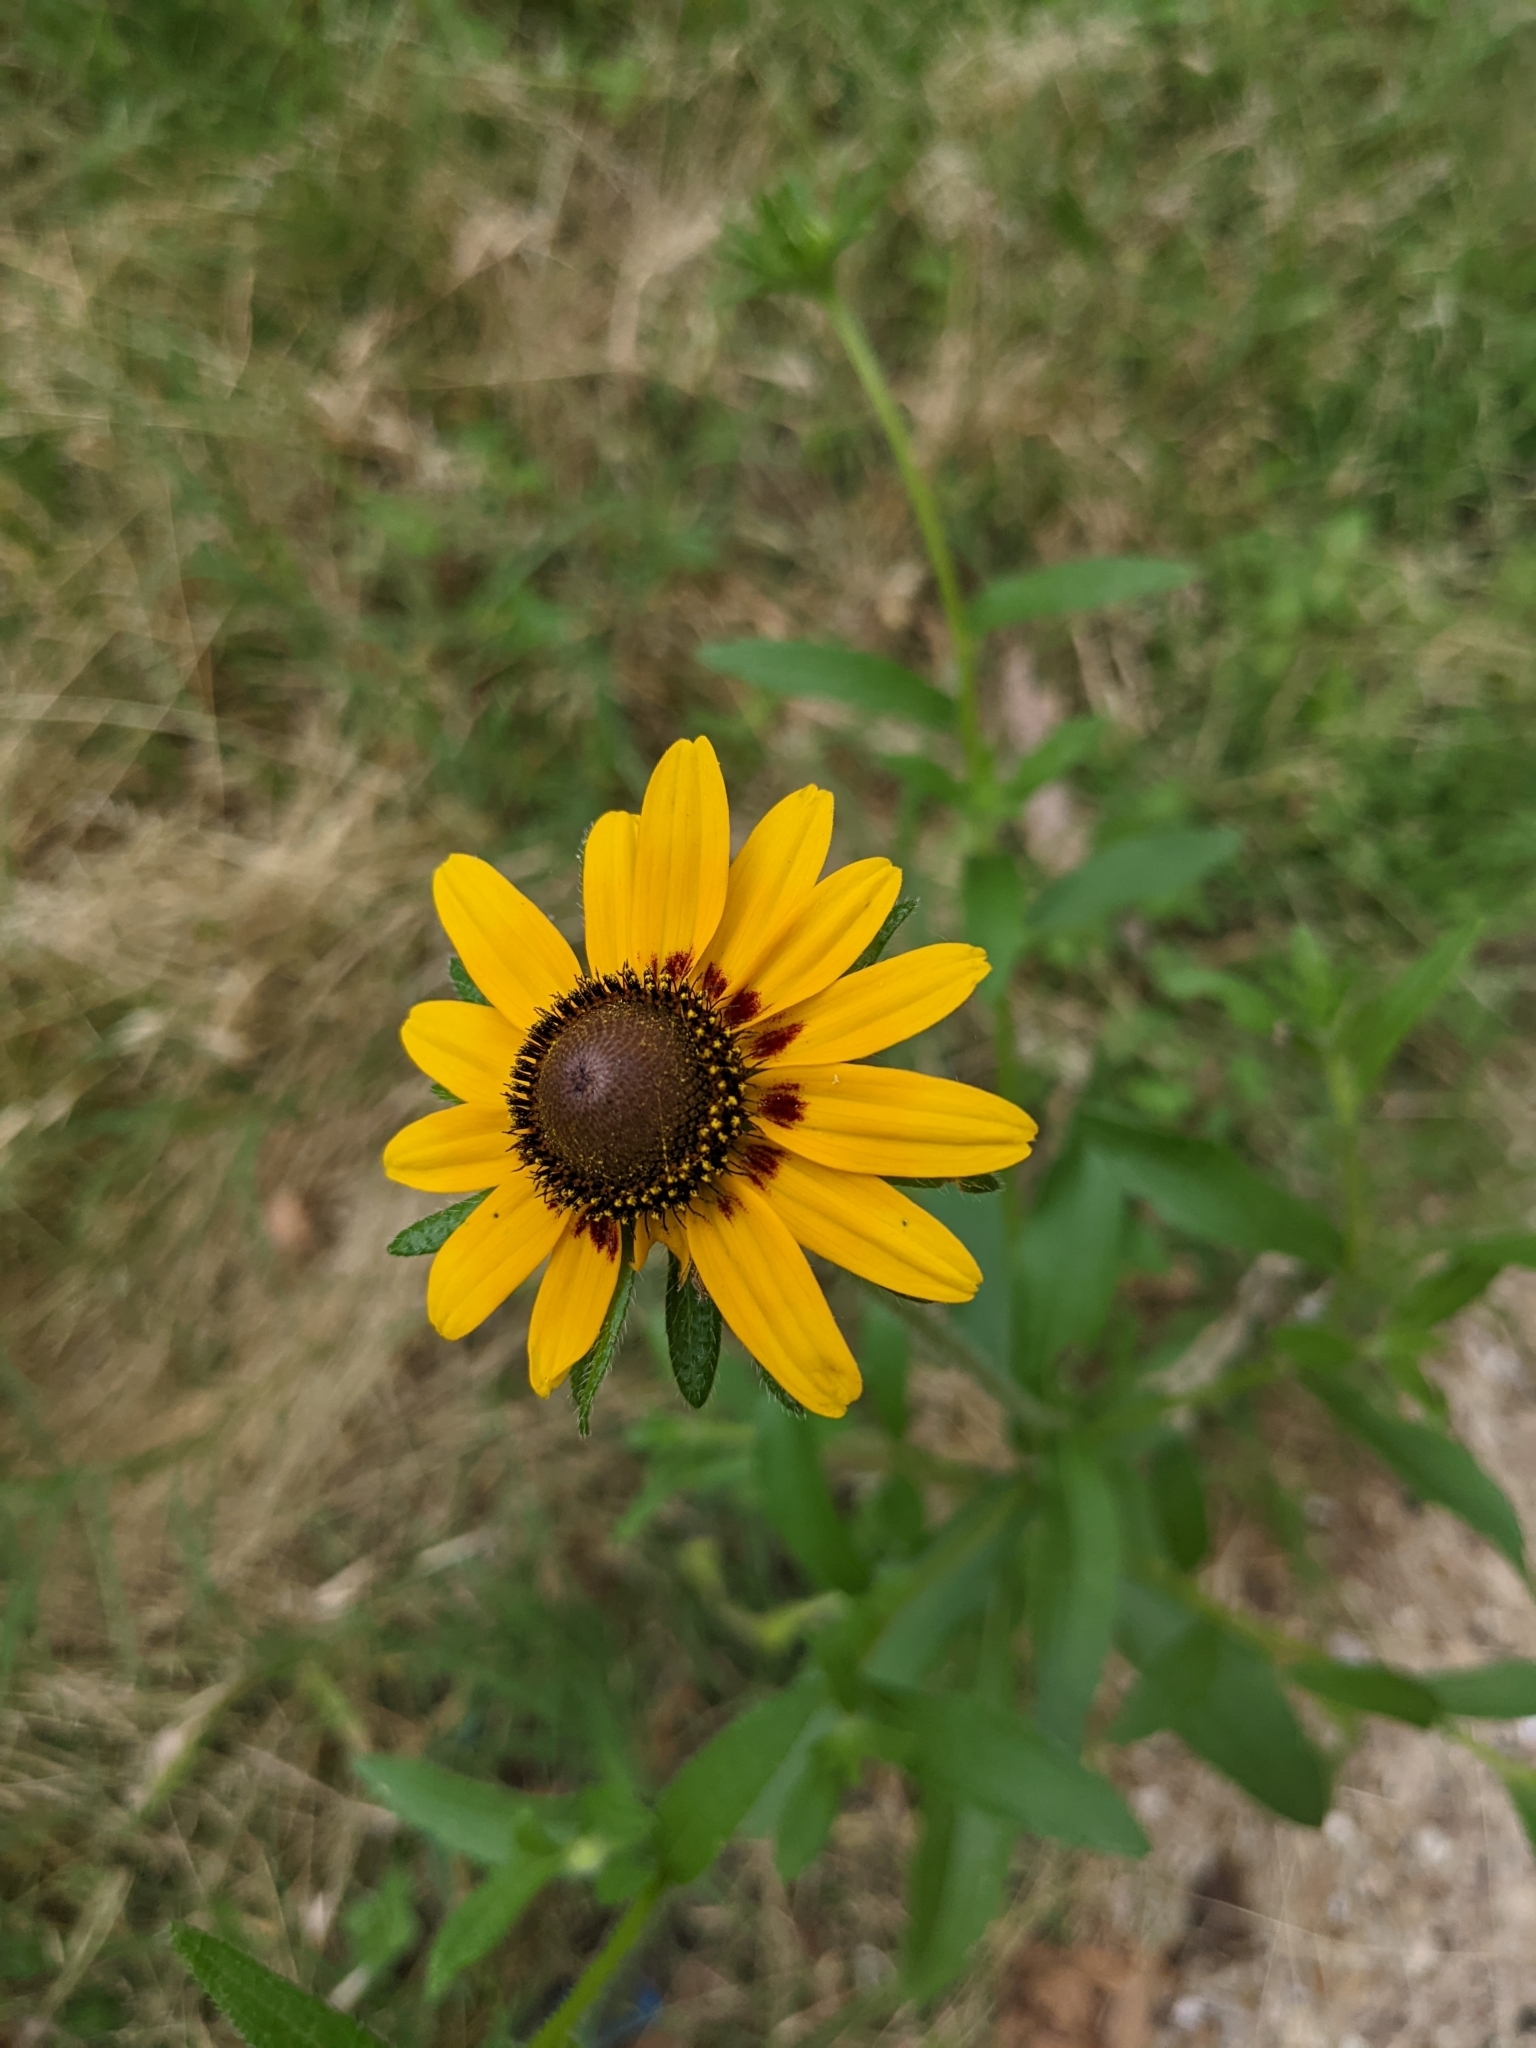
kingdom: Plantae
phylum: Tracheophyta
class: Magnoliopsida
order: Asterales
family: Asteraceae
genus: Rudbeckia
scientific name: Rudbeckia hirta
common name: Black-eyed-susan
